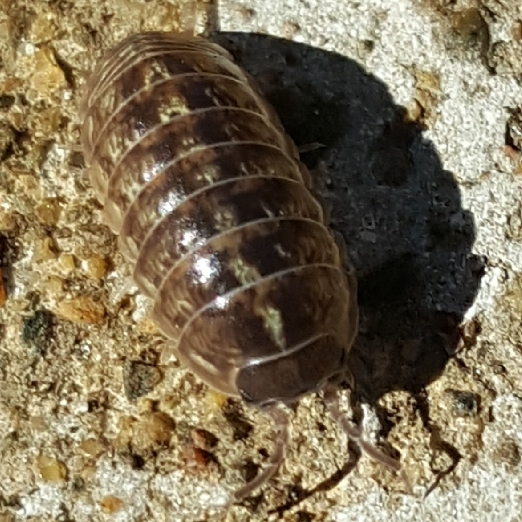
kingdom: Animalia
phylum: Arthropoda
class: Malacostraca
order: Isopoda
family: Armadillidiidae
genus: Armadillidium
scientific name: Armadillidium vulgare
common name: Common pill woodlouse
